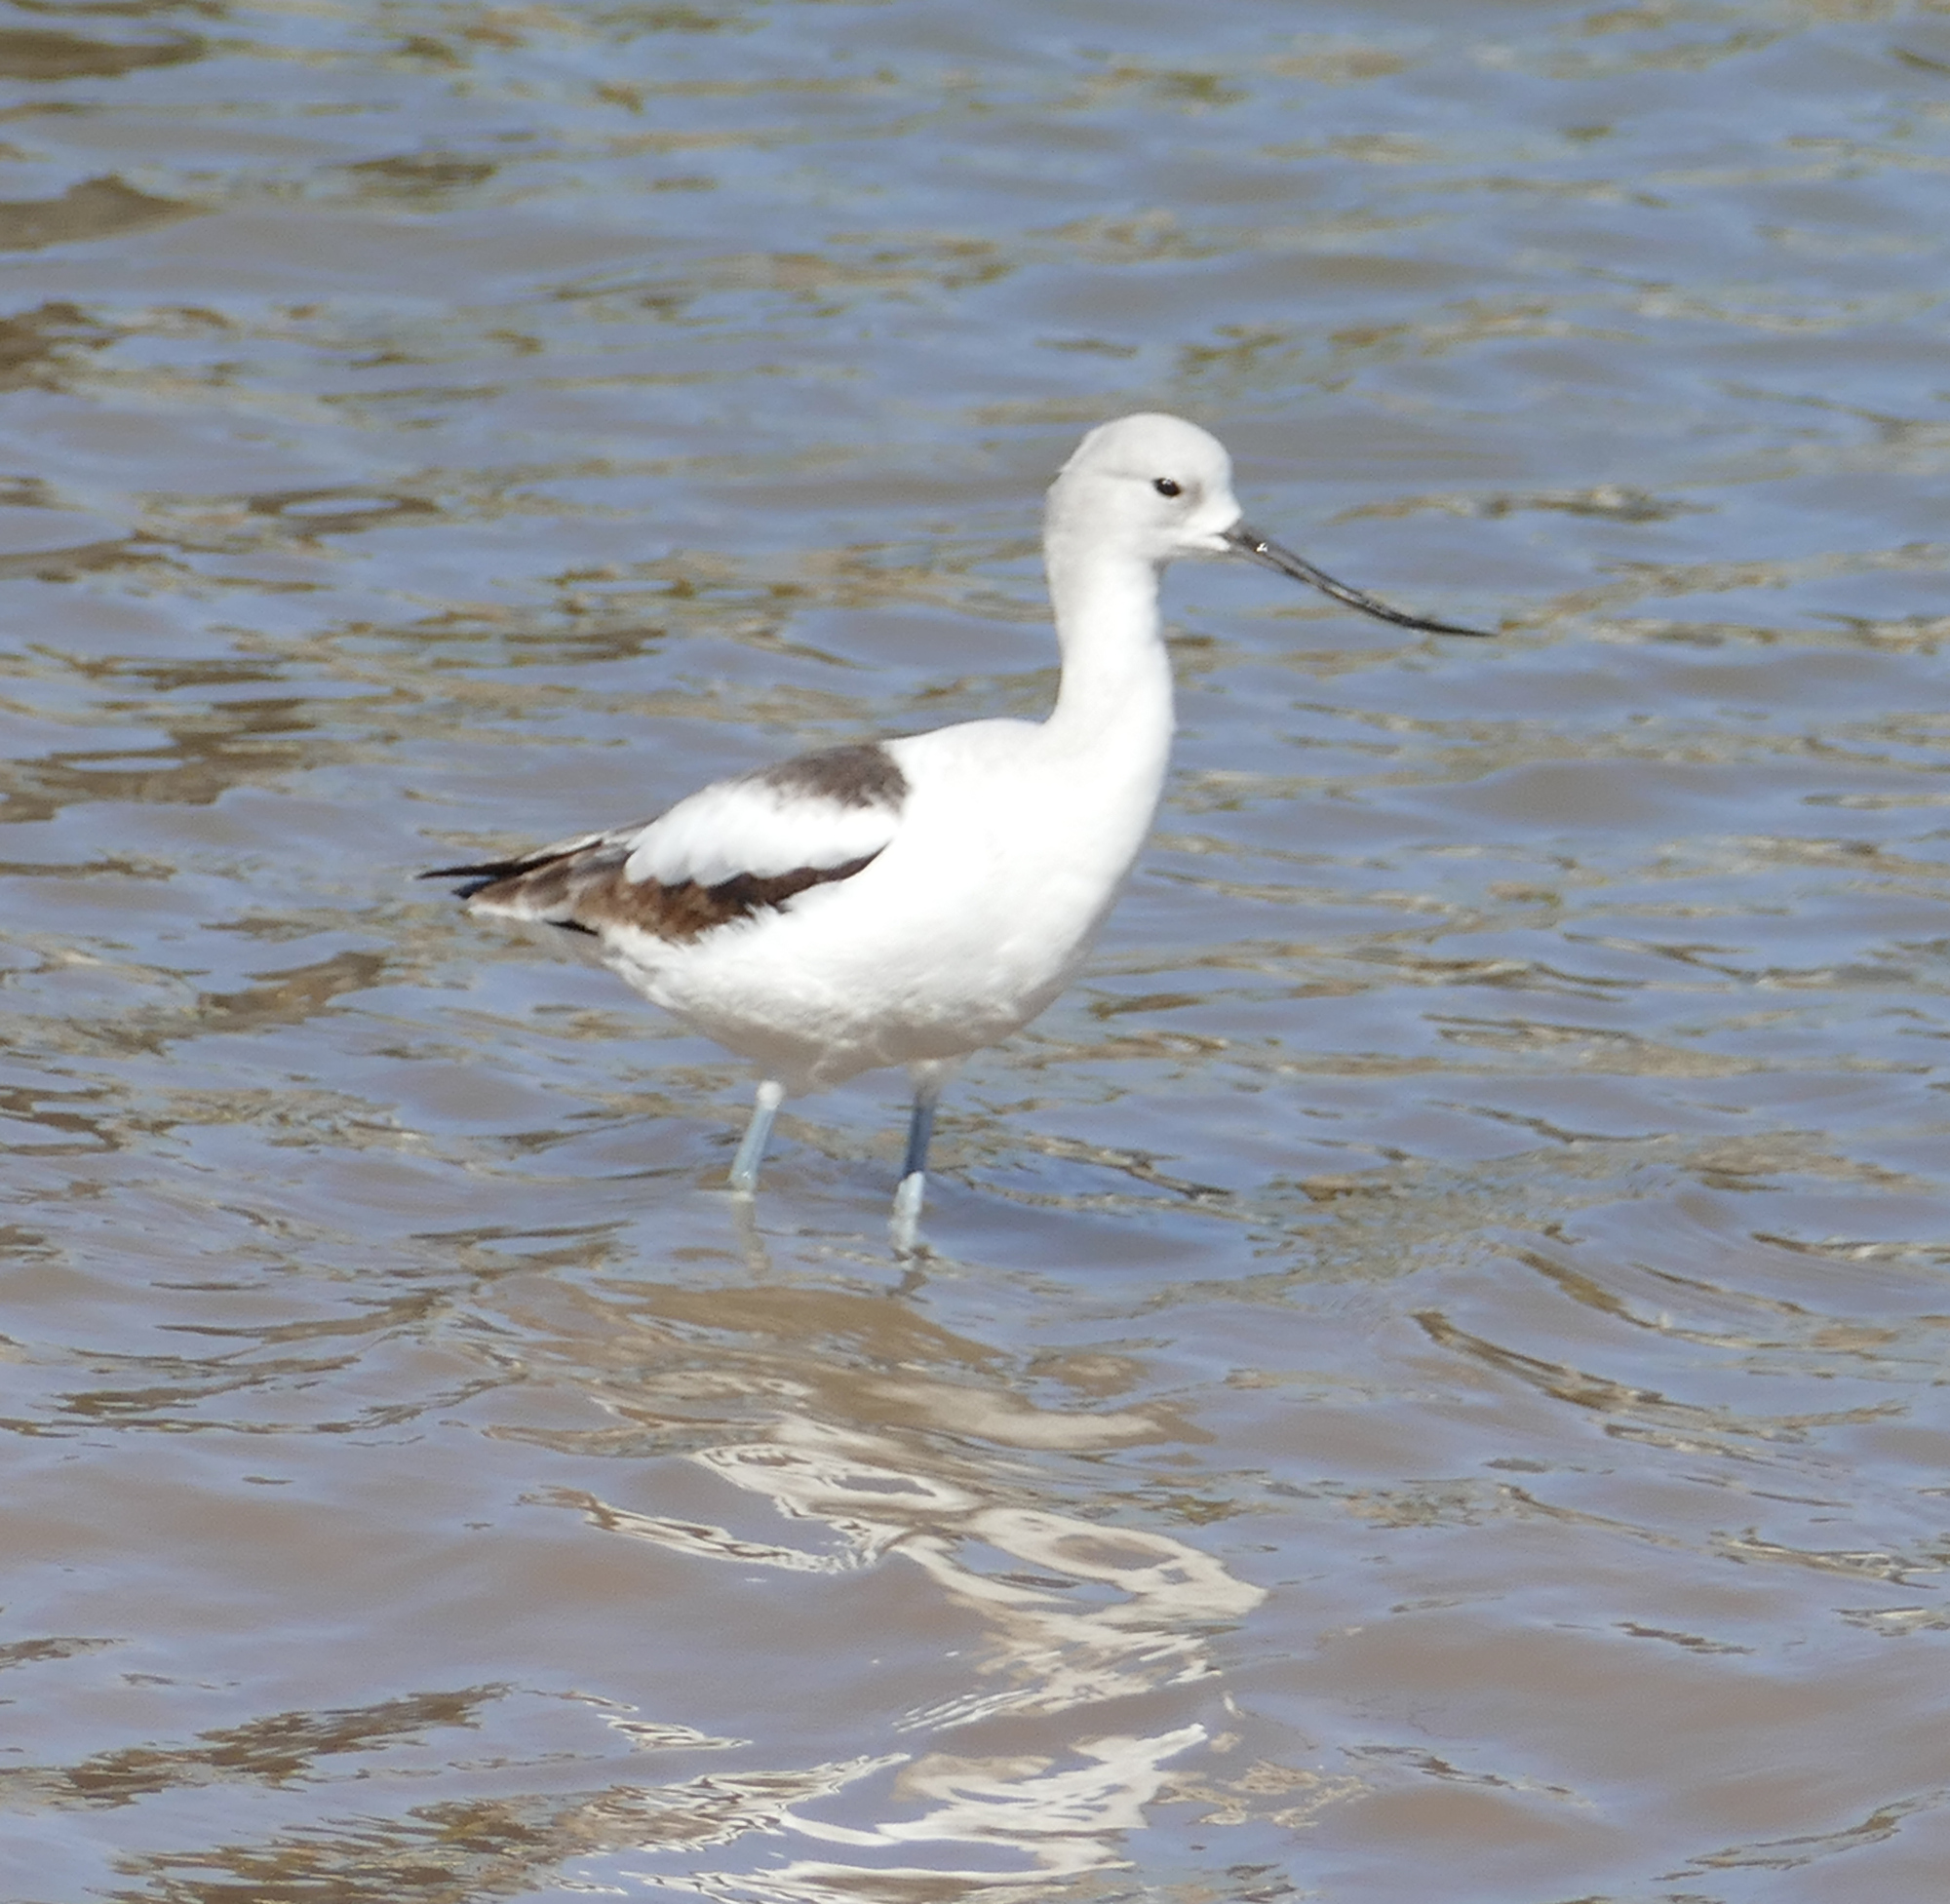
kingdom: Animalia
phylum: Chordata
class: Aves
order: Charadriiformes
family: Recurvirostridae
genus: Recurvirostra
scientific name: Recurvirostra americana
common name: American avocet
